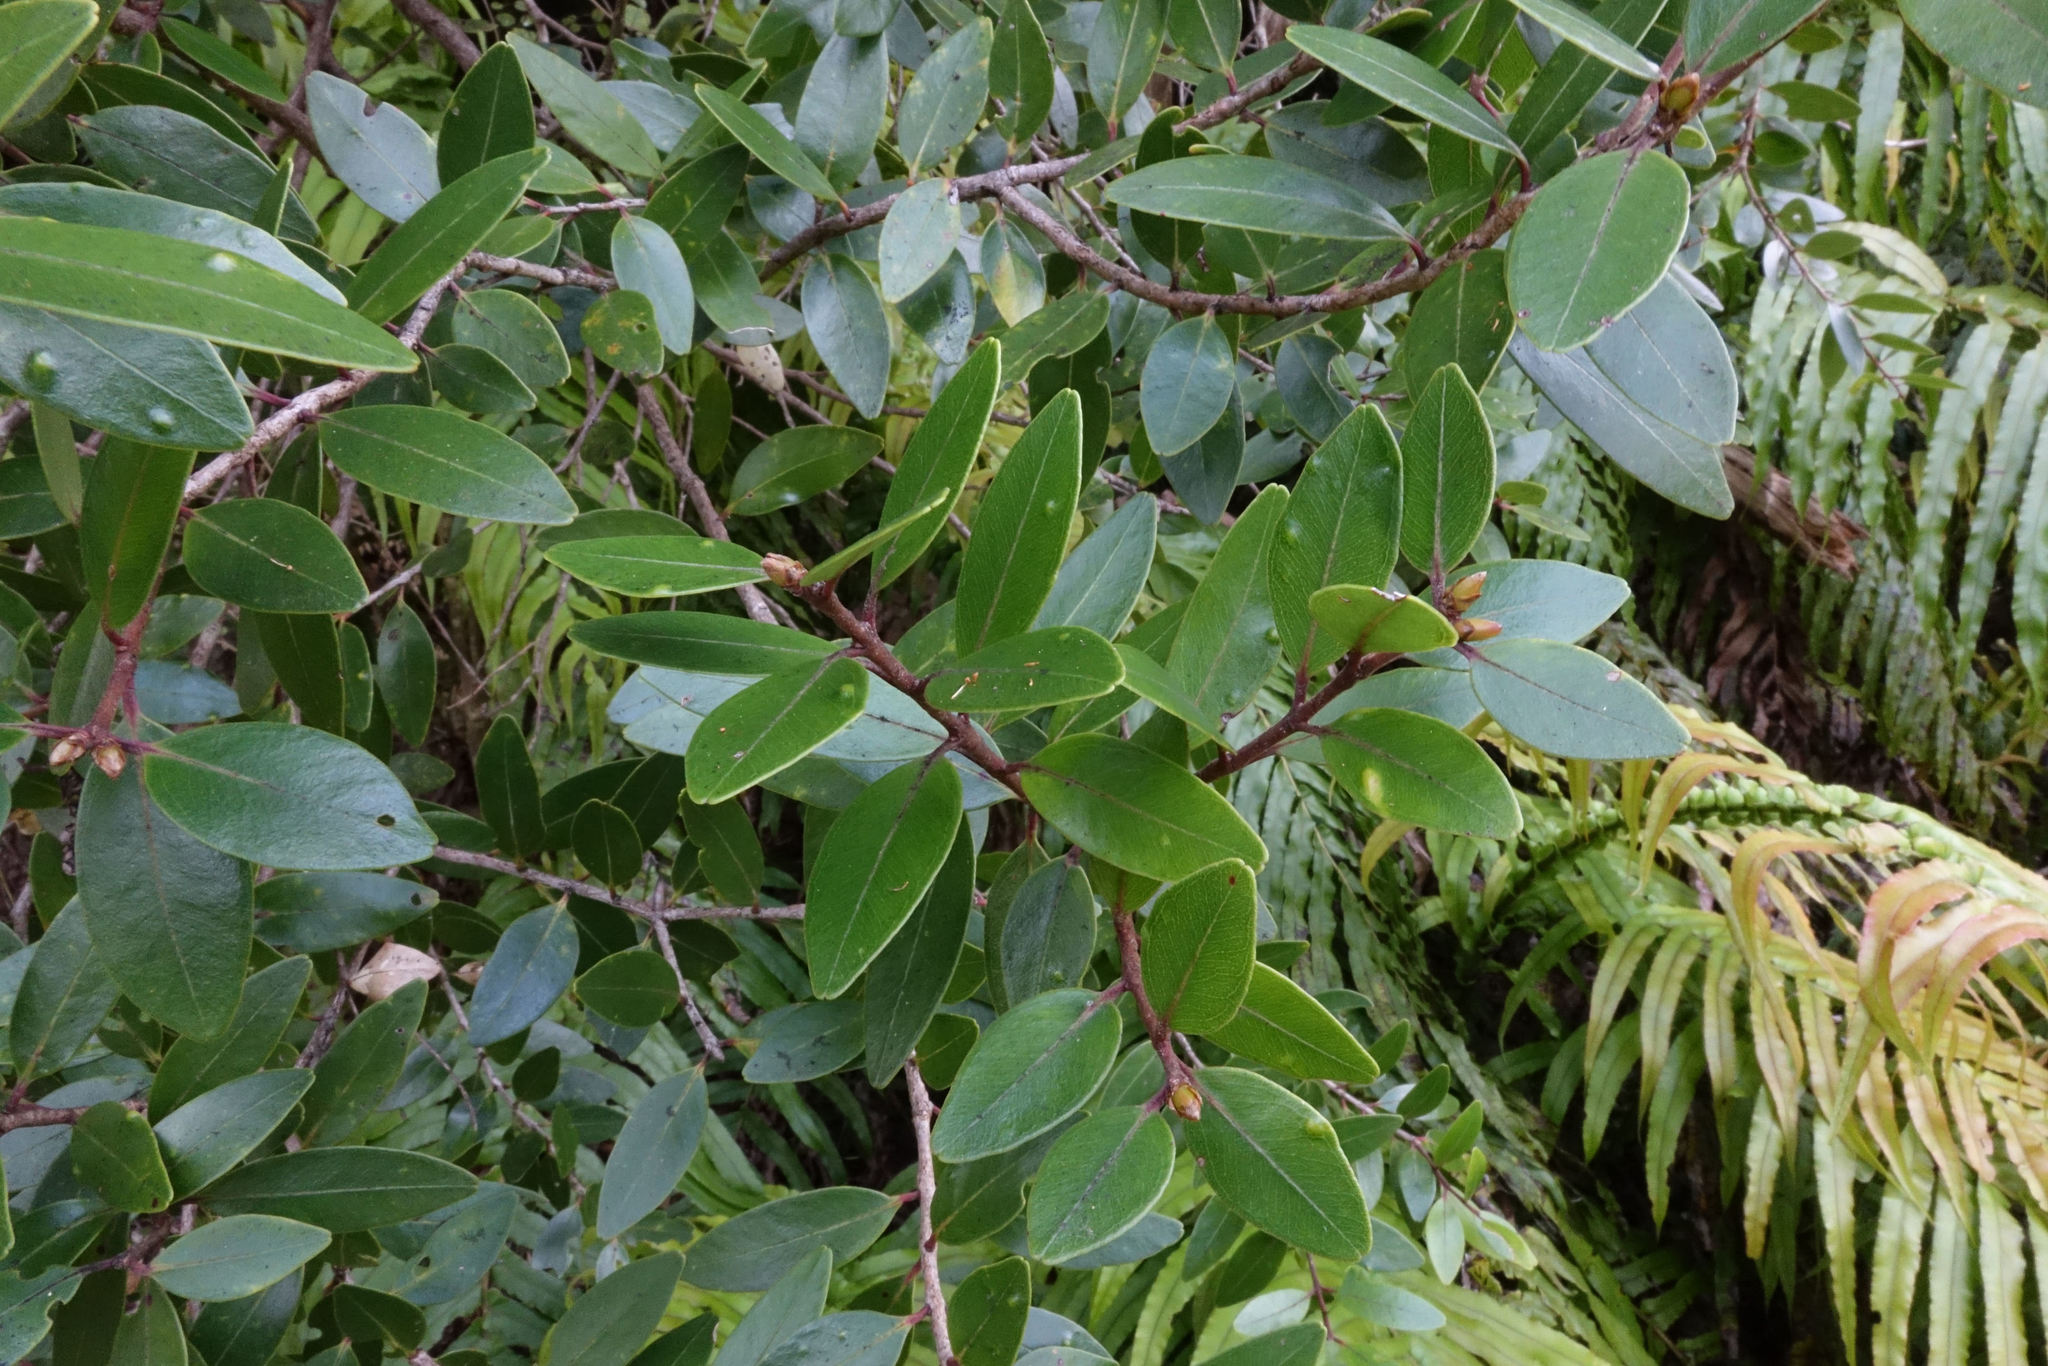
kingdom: Plantae
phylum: Tracheophyta
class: Magnoliopsida
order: Myrtales
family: Myrtaceae
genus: Metrosideros
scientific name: Metrosideros robusta
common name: Northern rata
